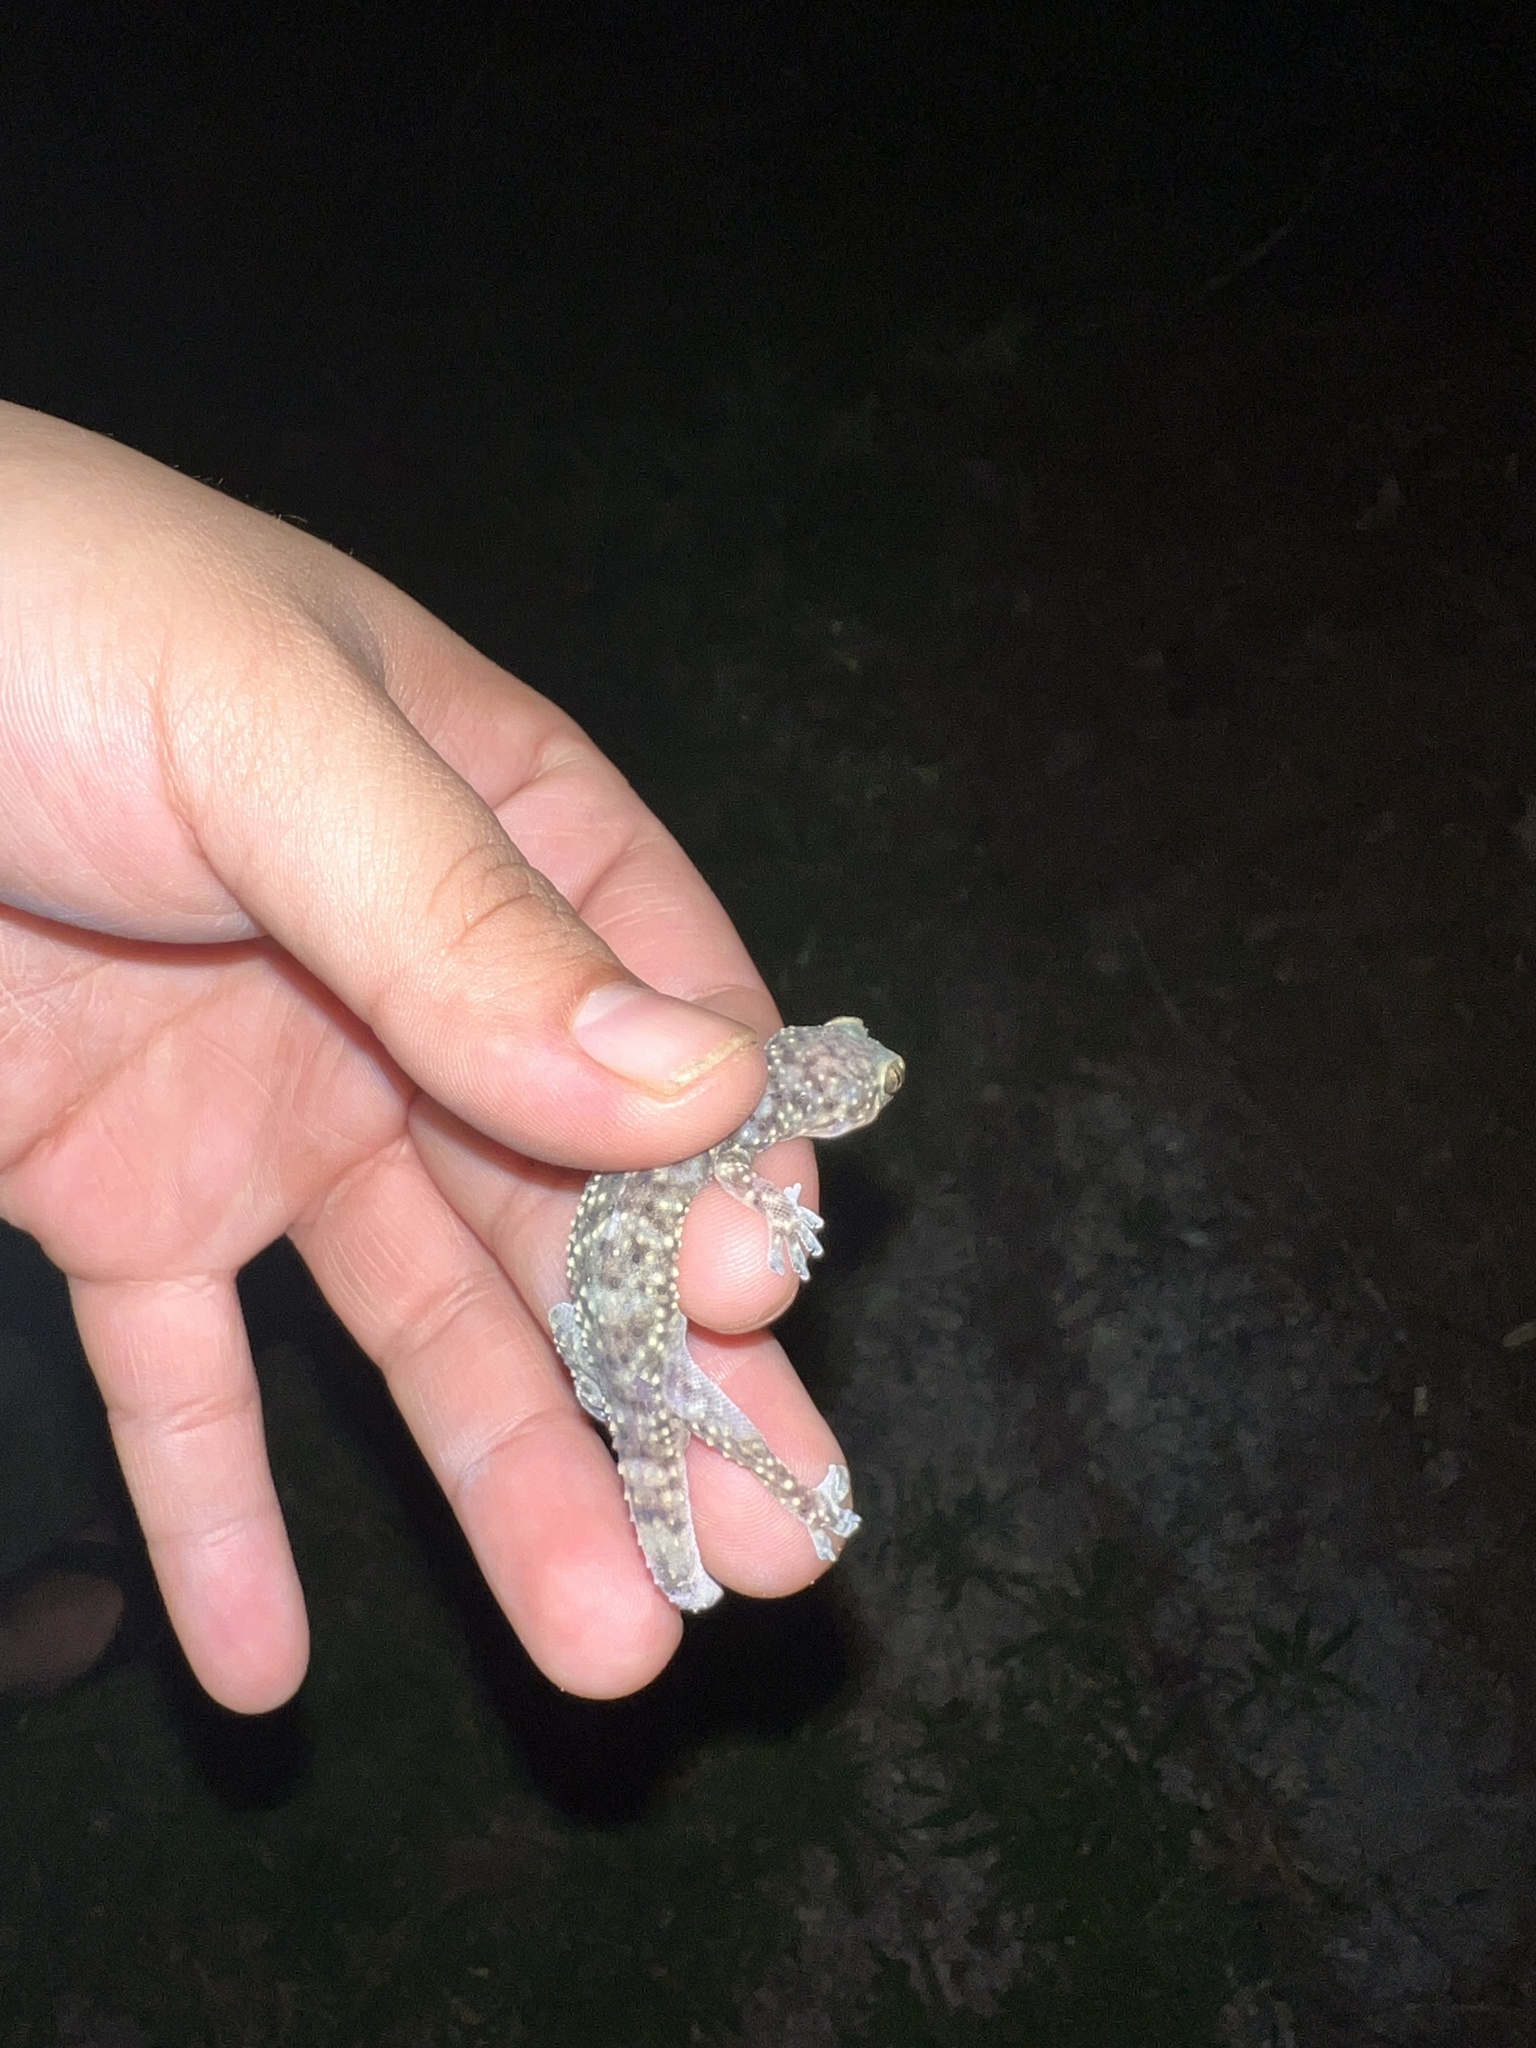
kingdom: Animalia
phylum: Chordata
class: Squamata
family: Gekkonidae
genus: Hemidactylus
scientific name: Hemidactylus turcicus
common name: Turkish gecko
